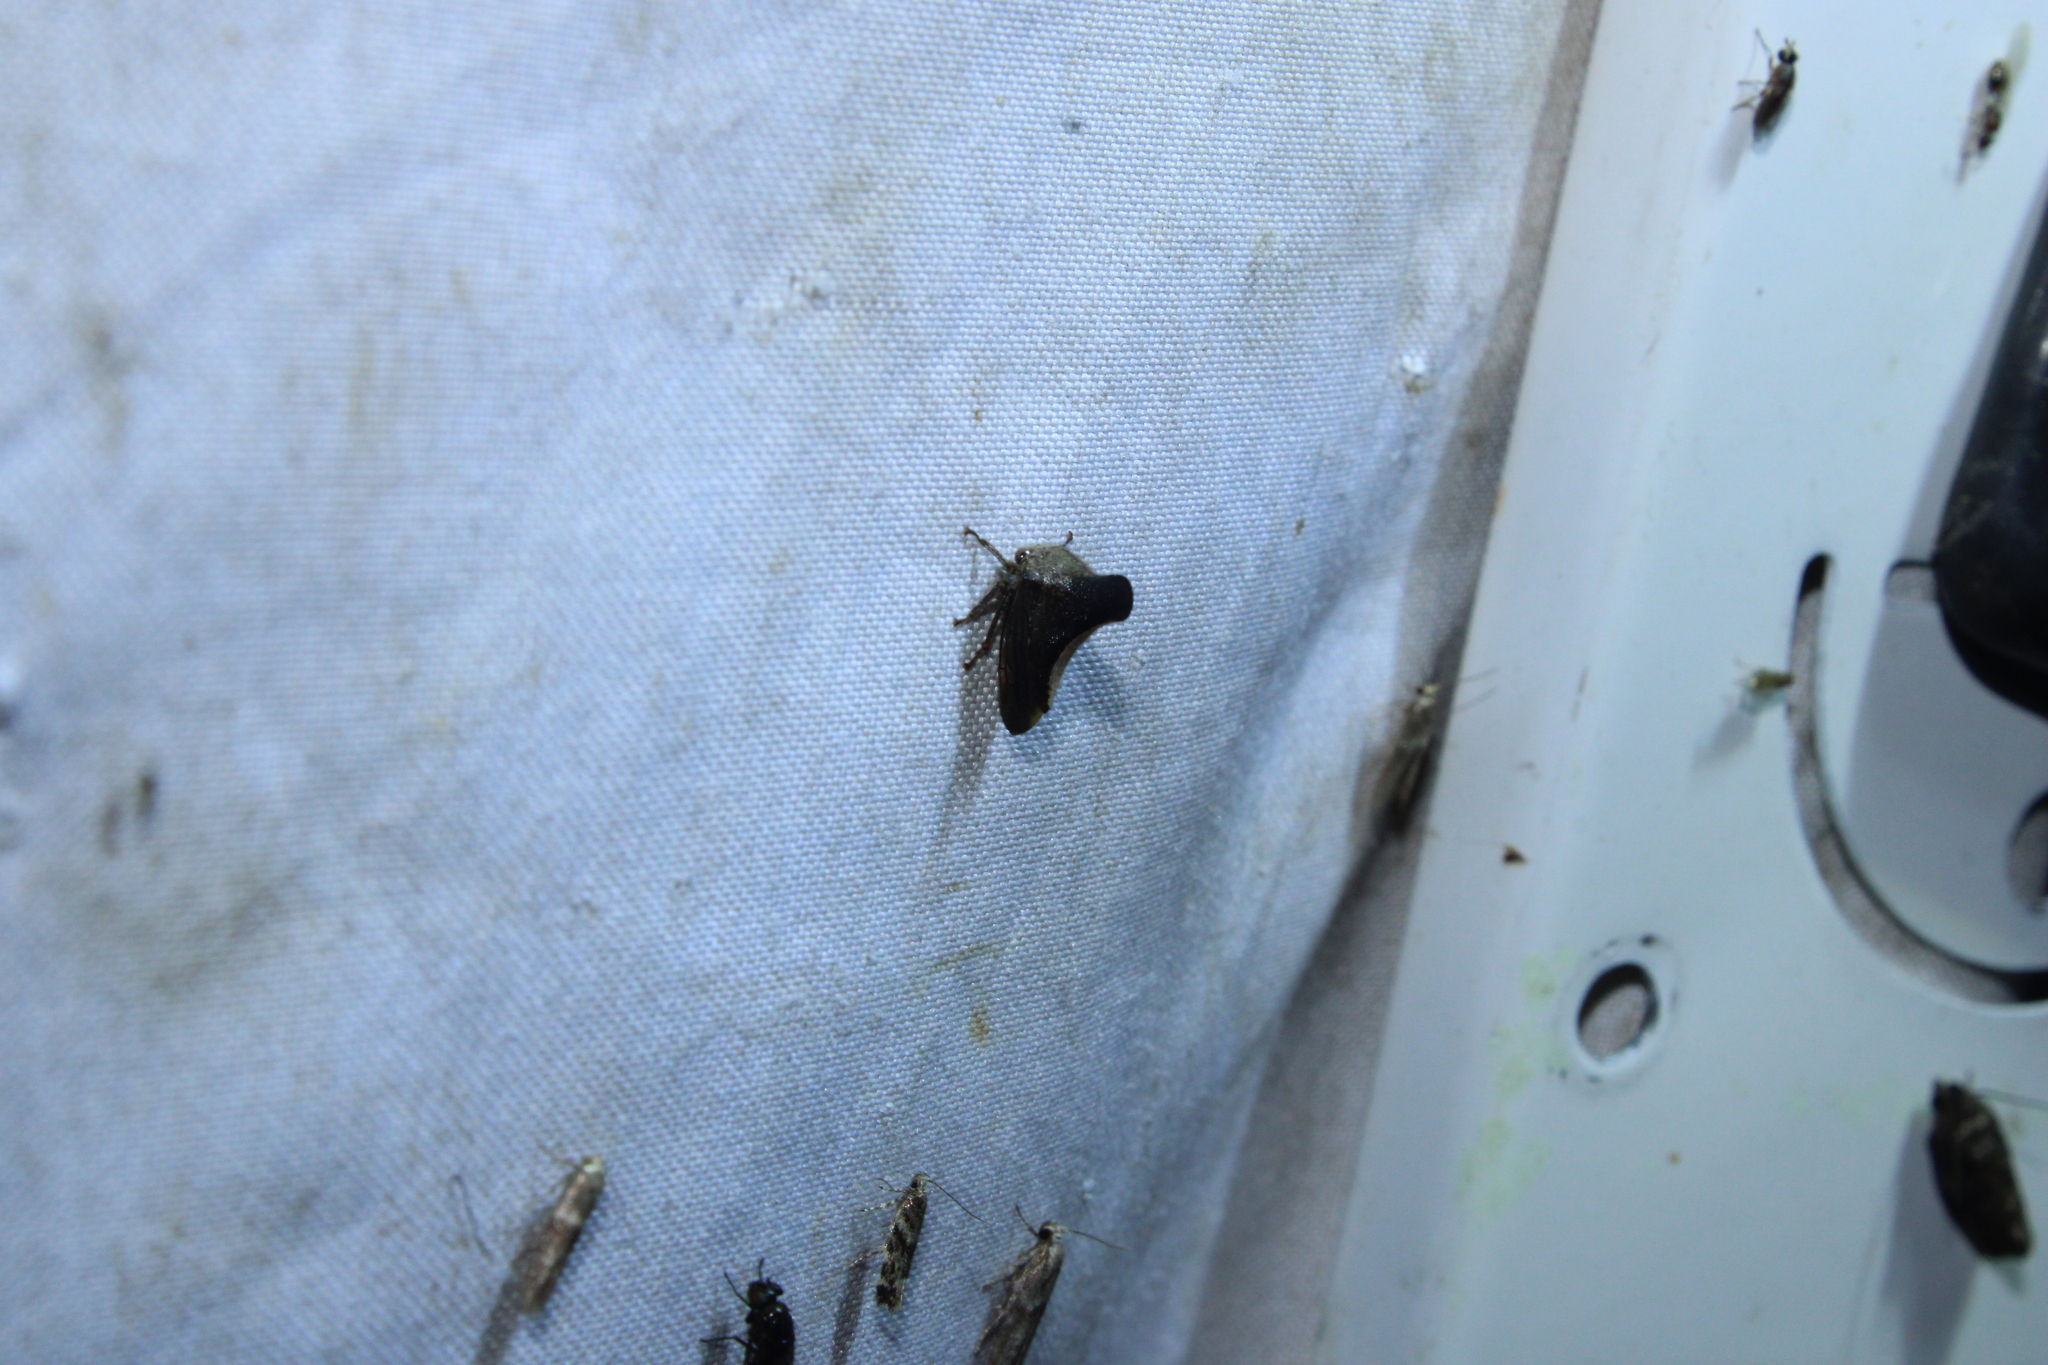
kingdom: Animalia
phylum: Arthropoda
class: Insecta
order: Hemiptera
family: Membracidae
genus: Glossonotus
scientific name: Glossonotus univittatus
